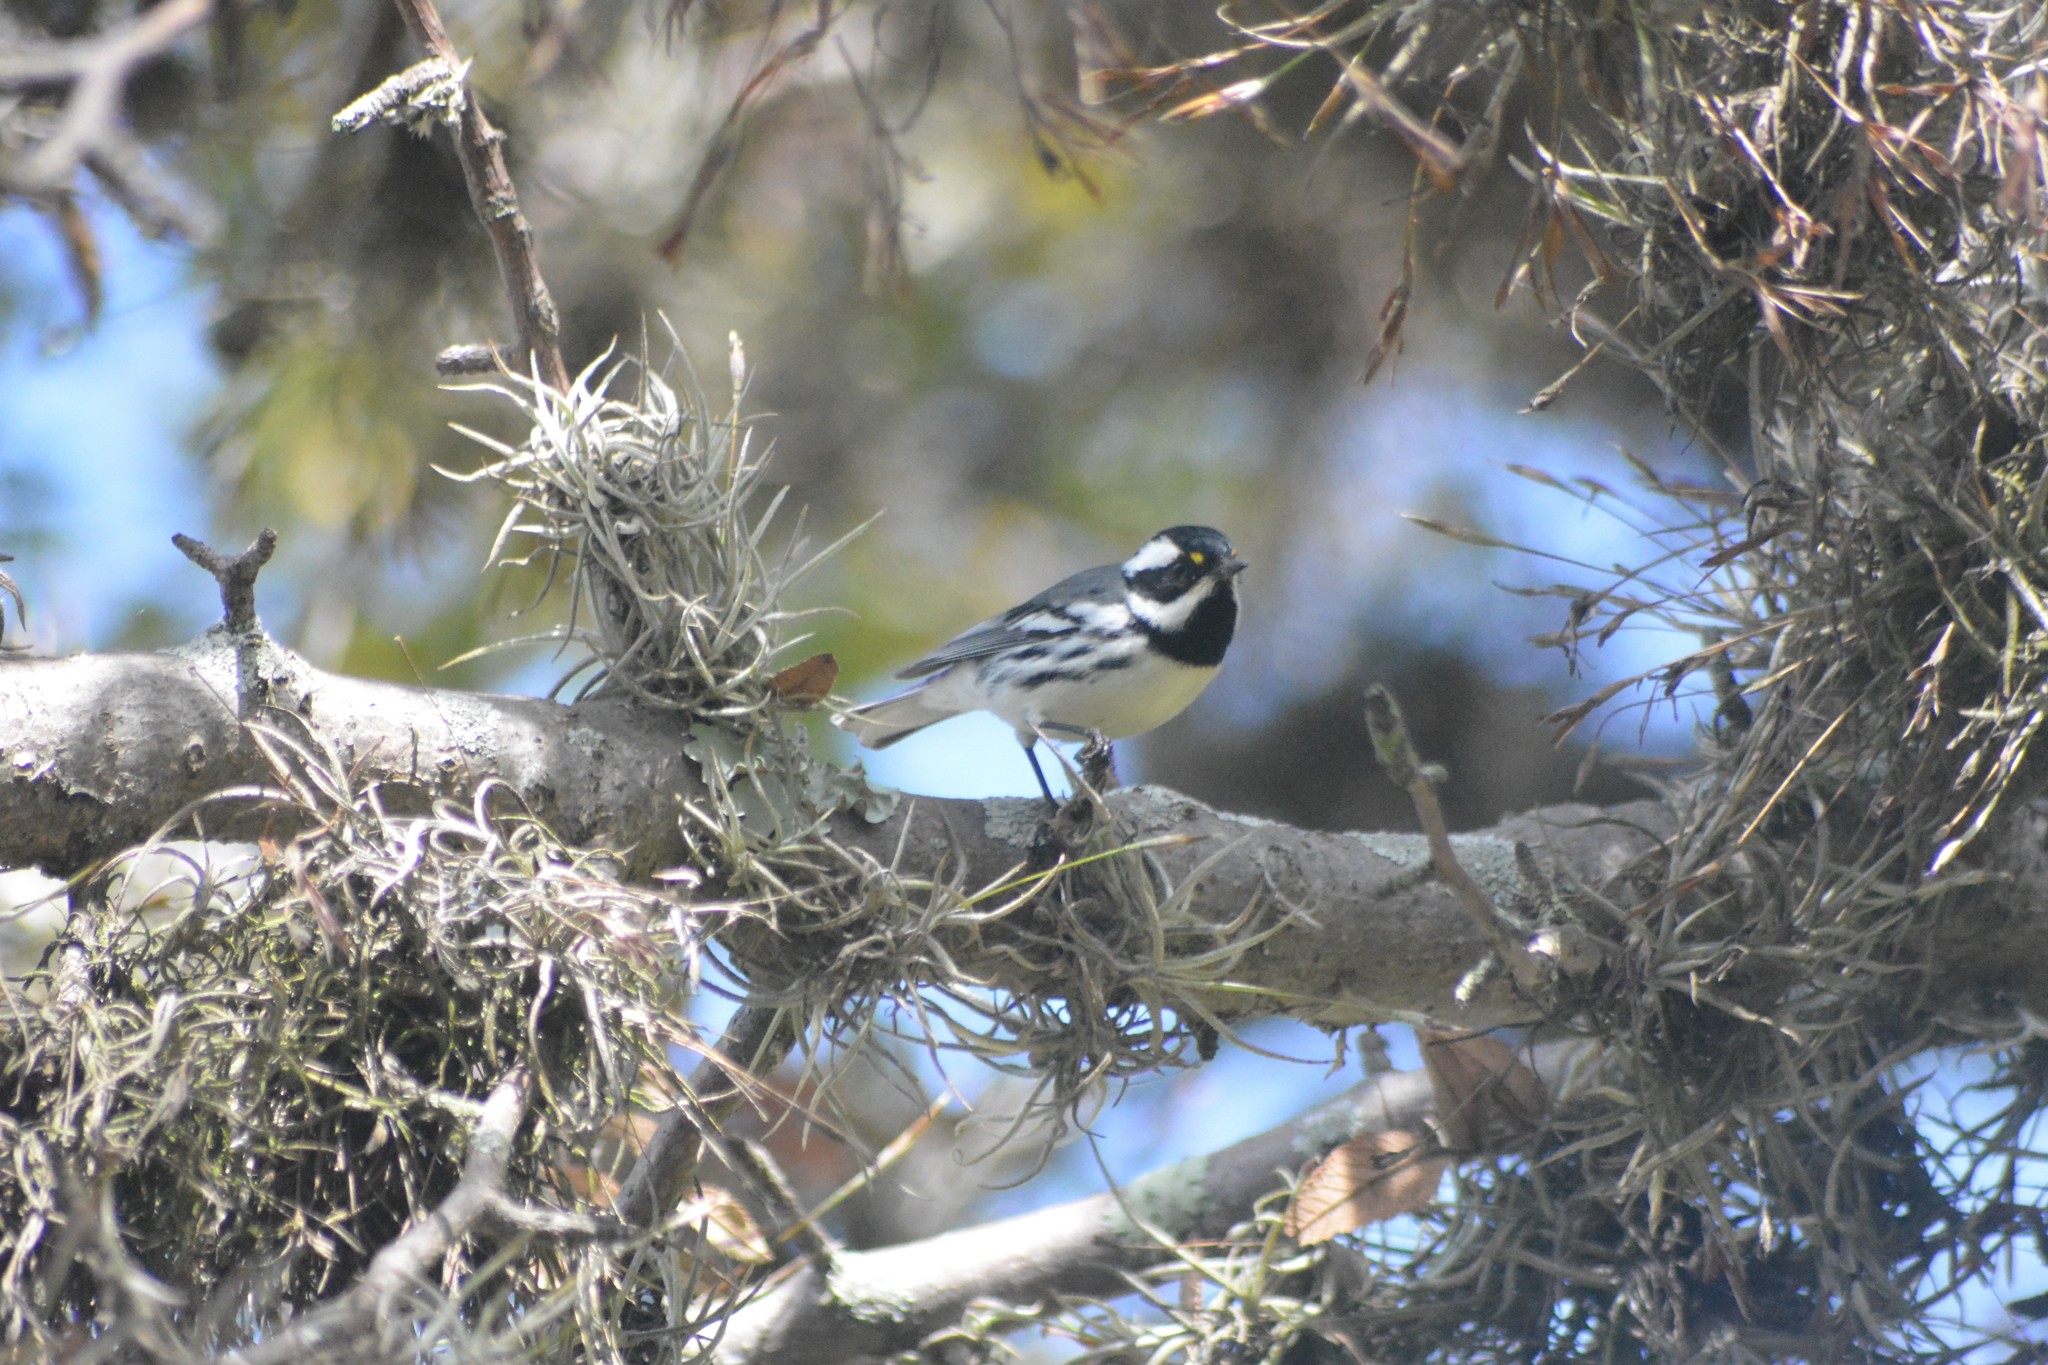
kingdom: Animalia
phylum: Chordata
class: Aves
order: Passeriformes
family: Parulidae
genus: Setophaga
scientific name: Setophaga nigrescens
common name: Black-throated gray warbler
